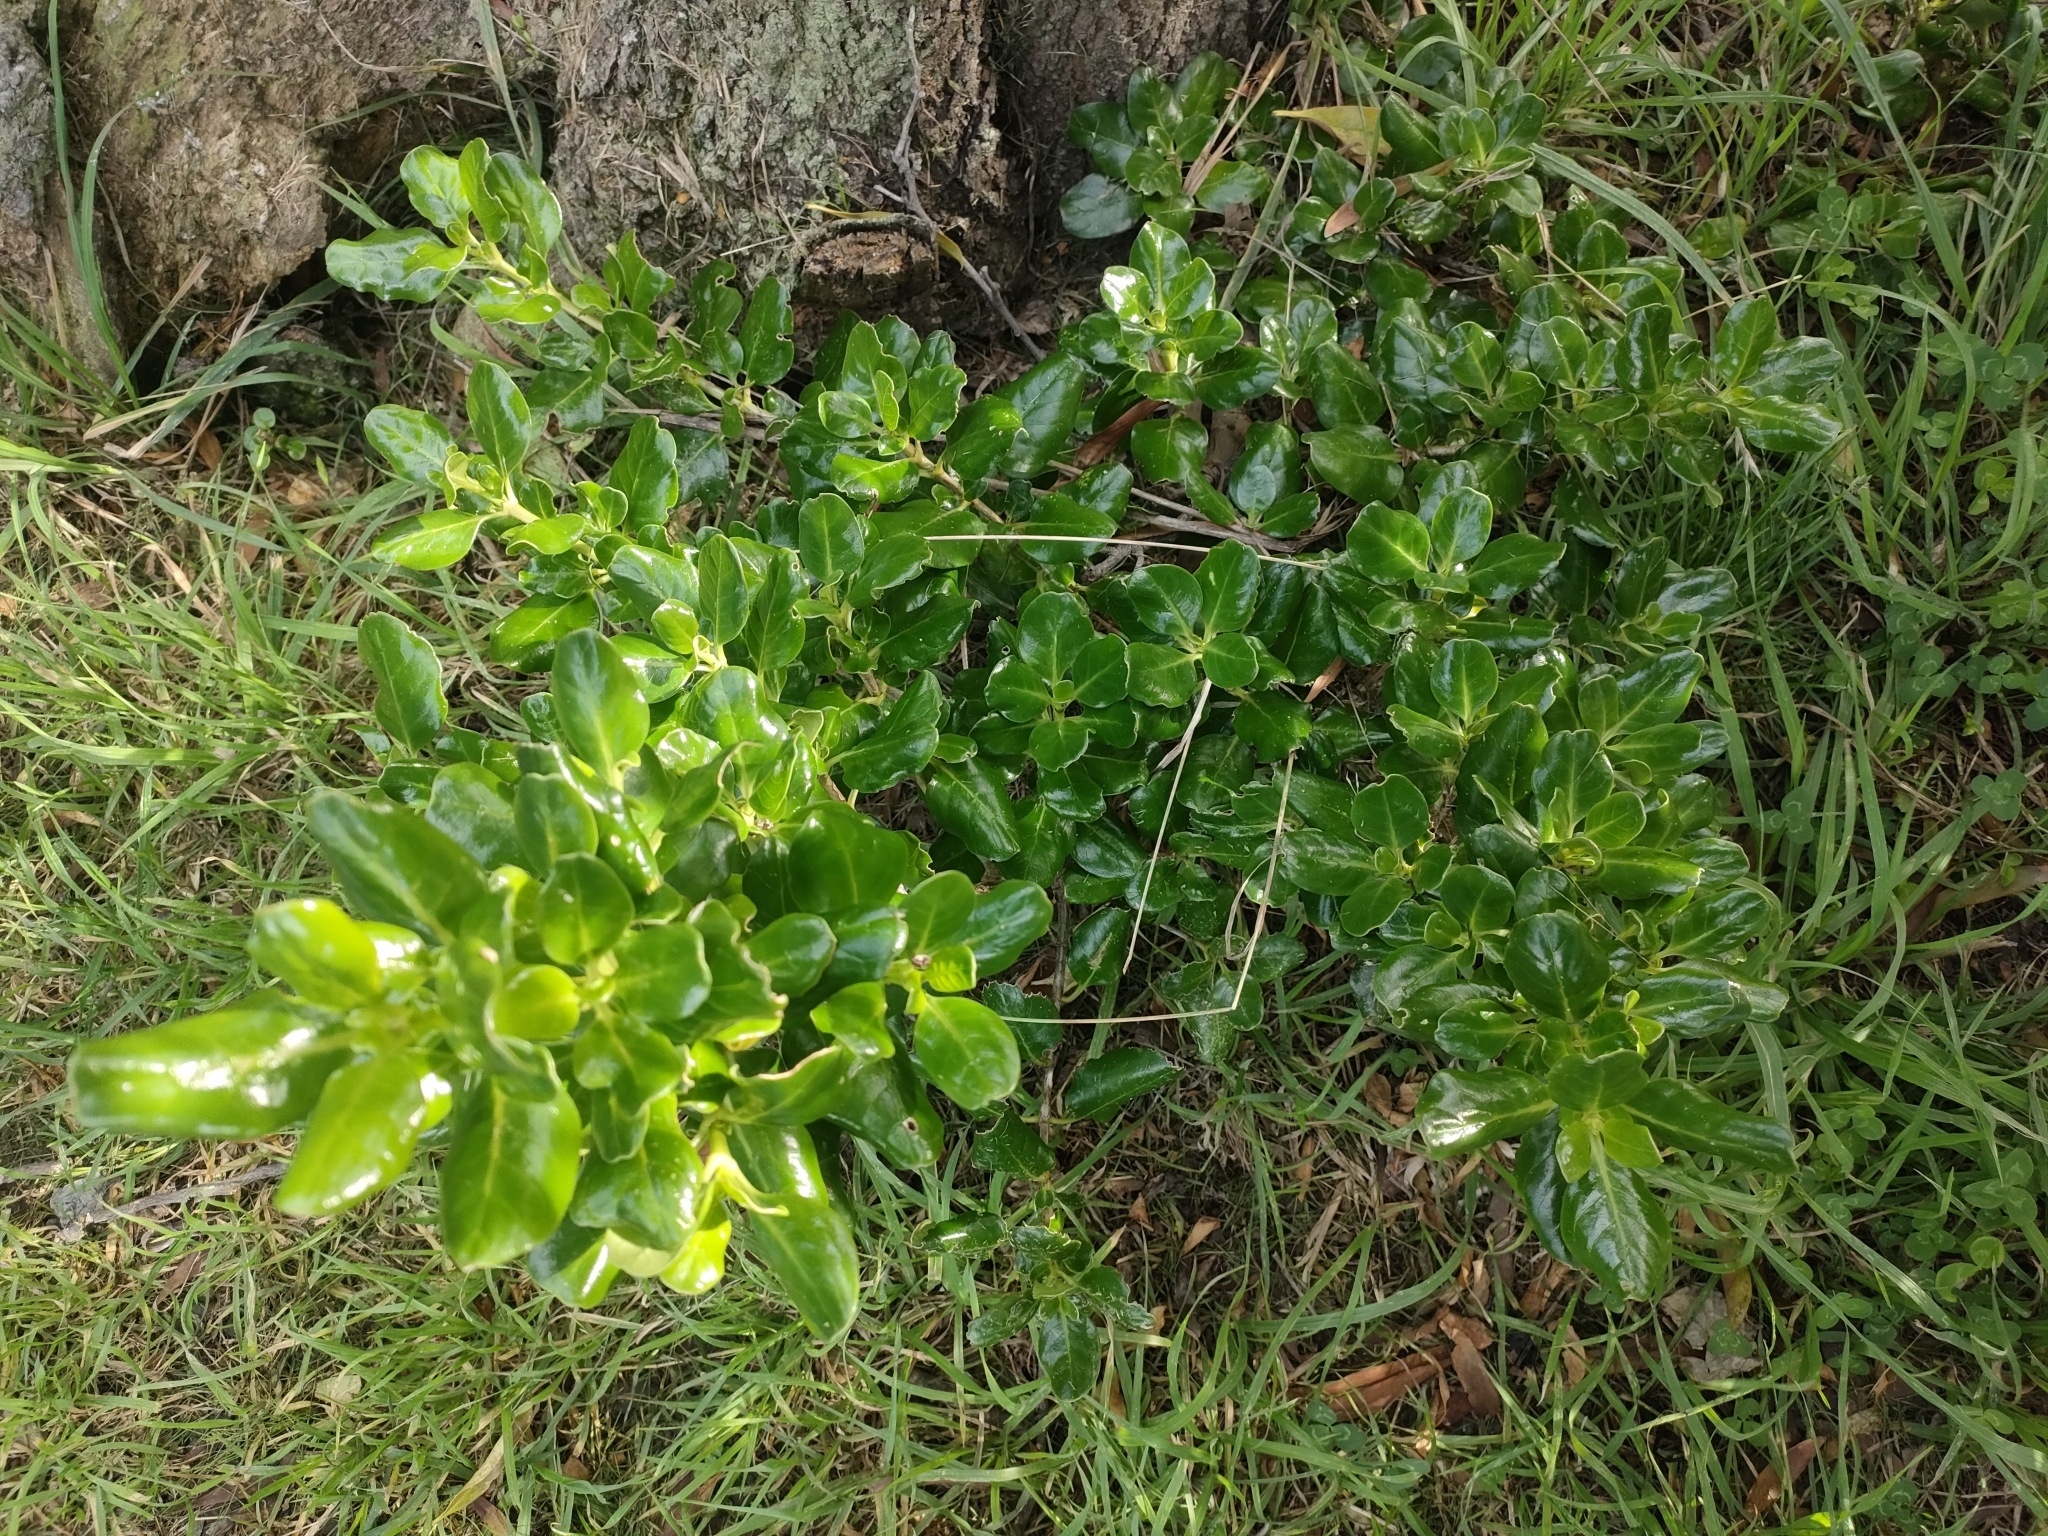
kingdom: Plantae
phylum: Tracheophyta
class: Magnoliopsida
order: Gentianales
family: Rubiaceae
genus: Coprosma
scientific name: Coprosma repens
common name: Tree bedstraw
